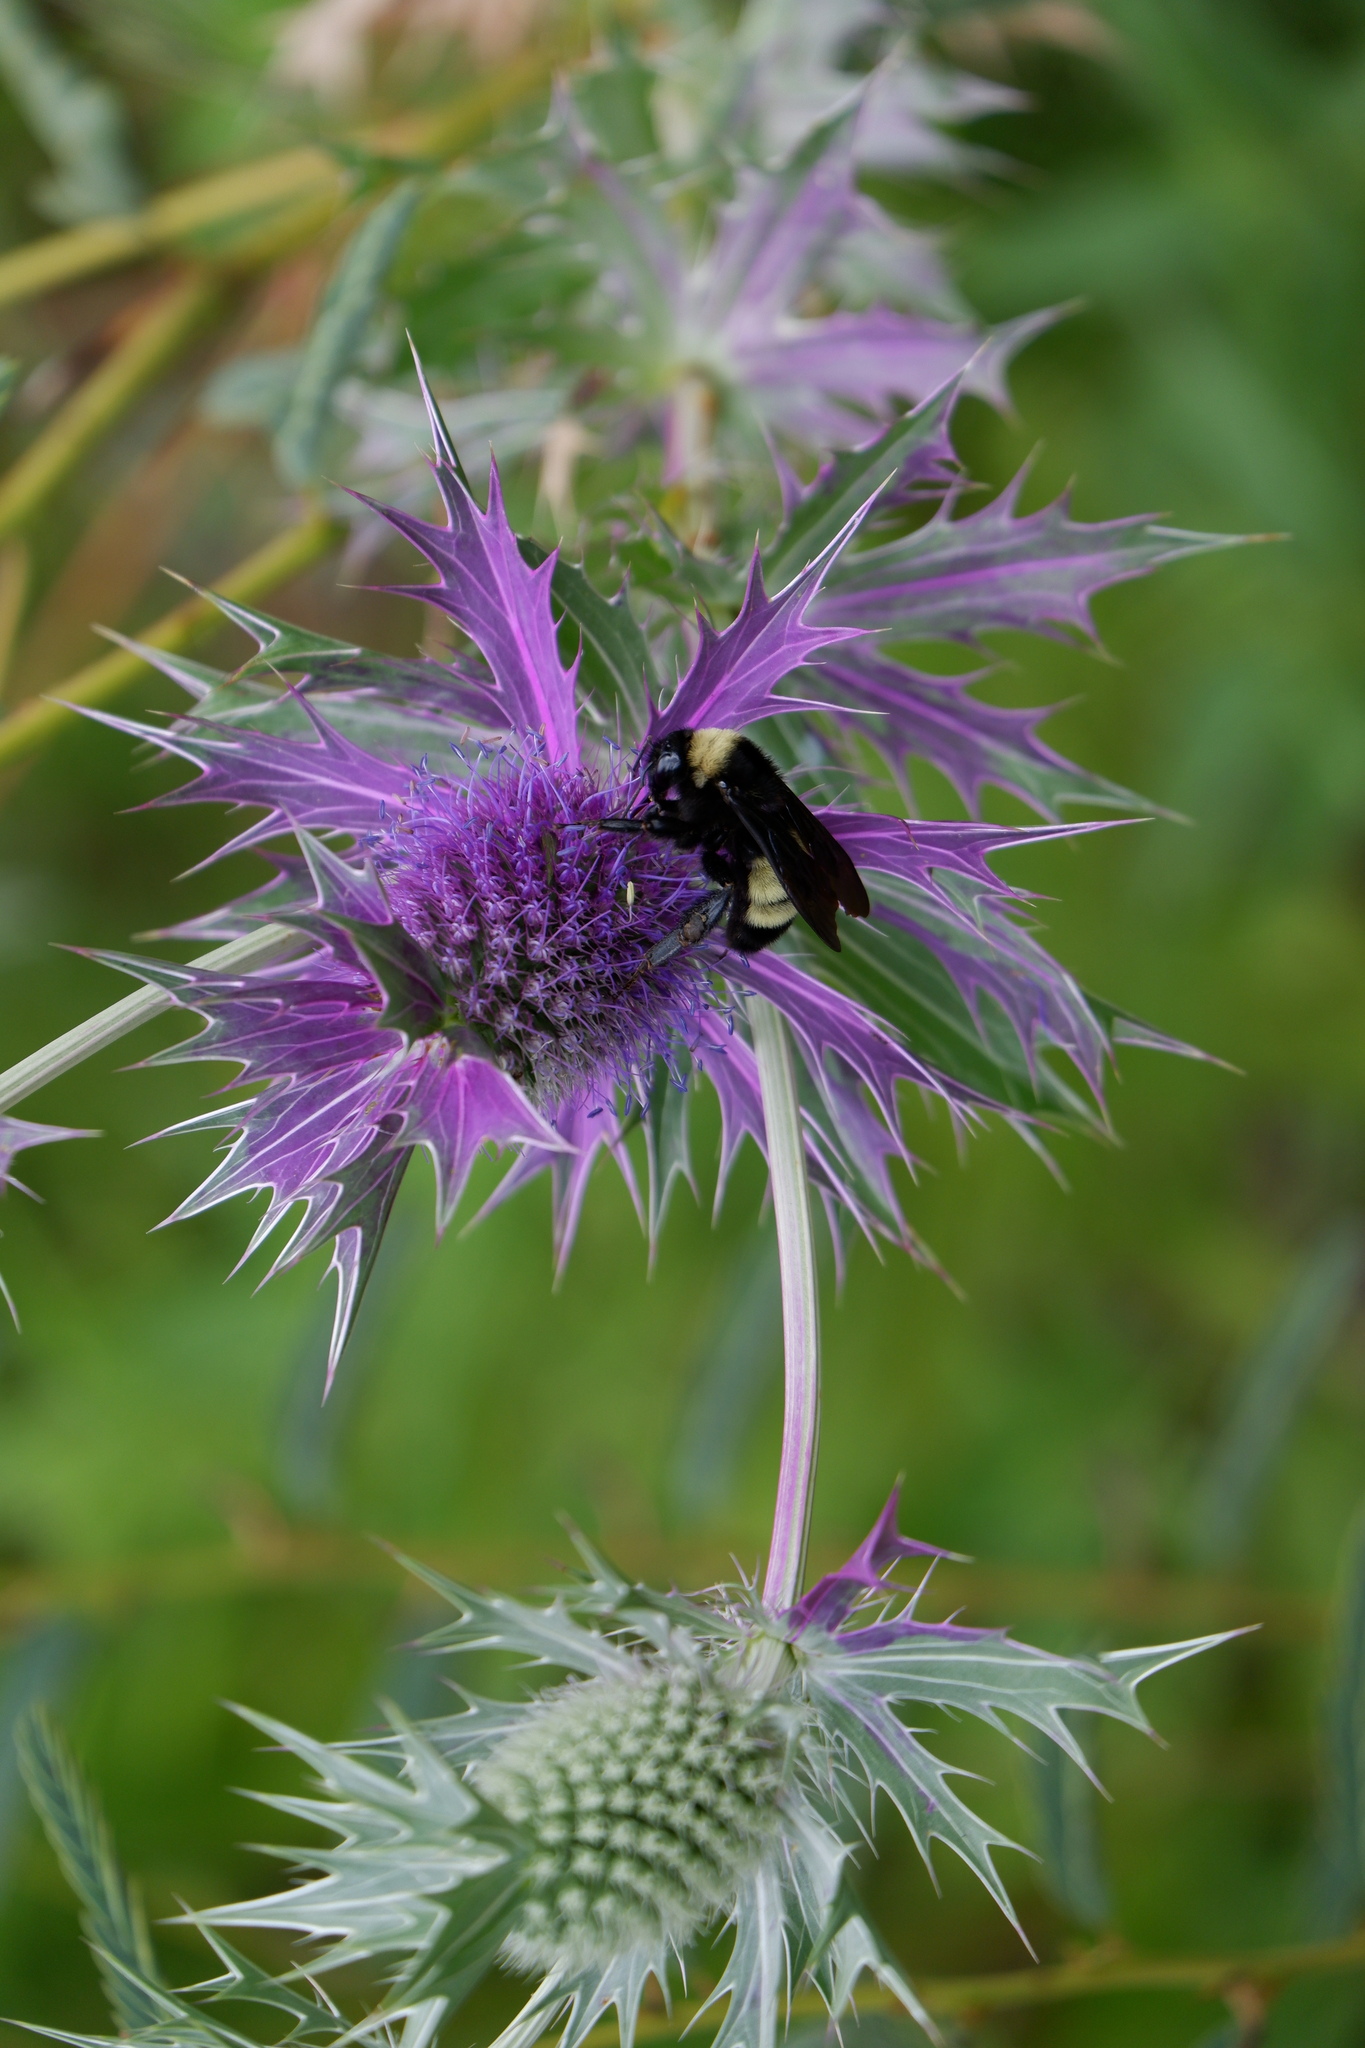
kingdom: Animalia
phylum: Arthropoda
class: Insecta
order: Hymenoptera
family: Apidae
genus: Bombus
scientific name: Bombus pensylvanicus
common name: Bumble bee
